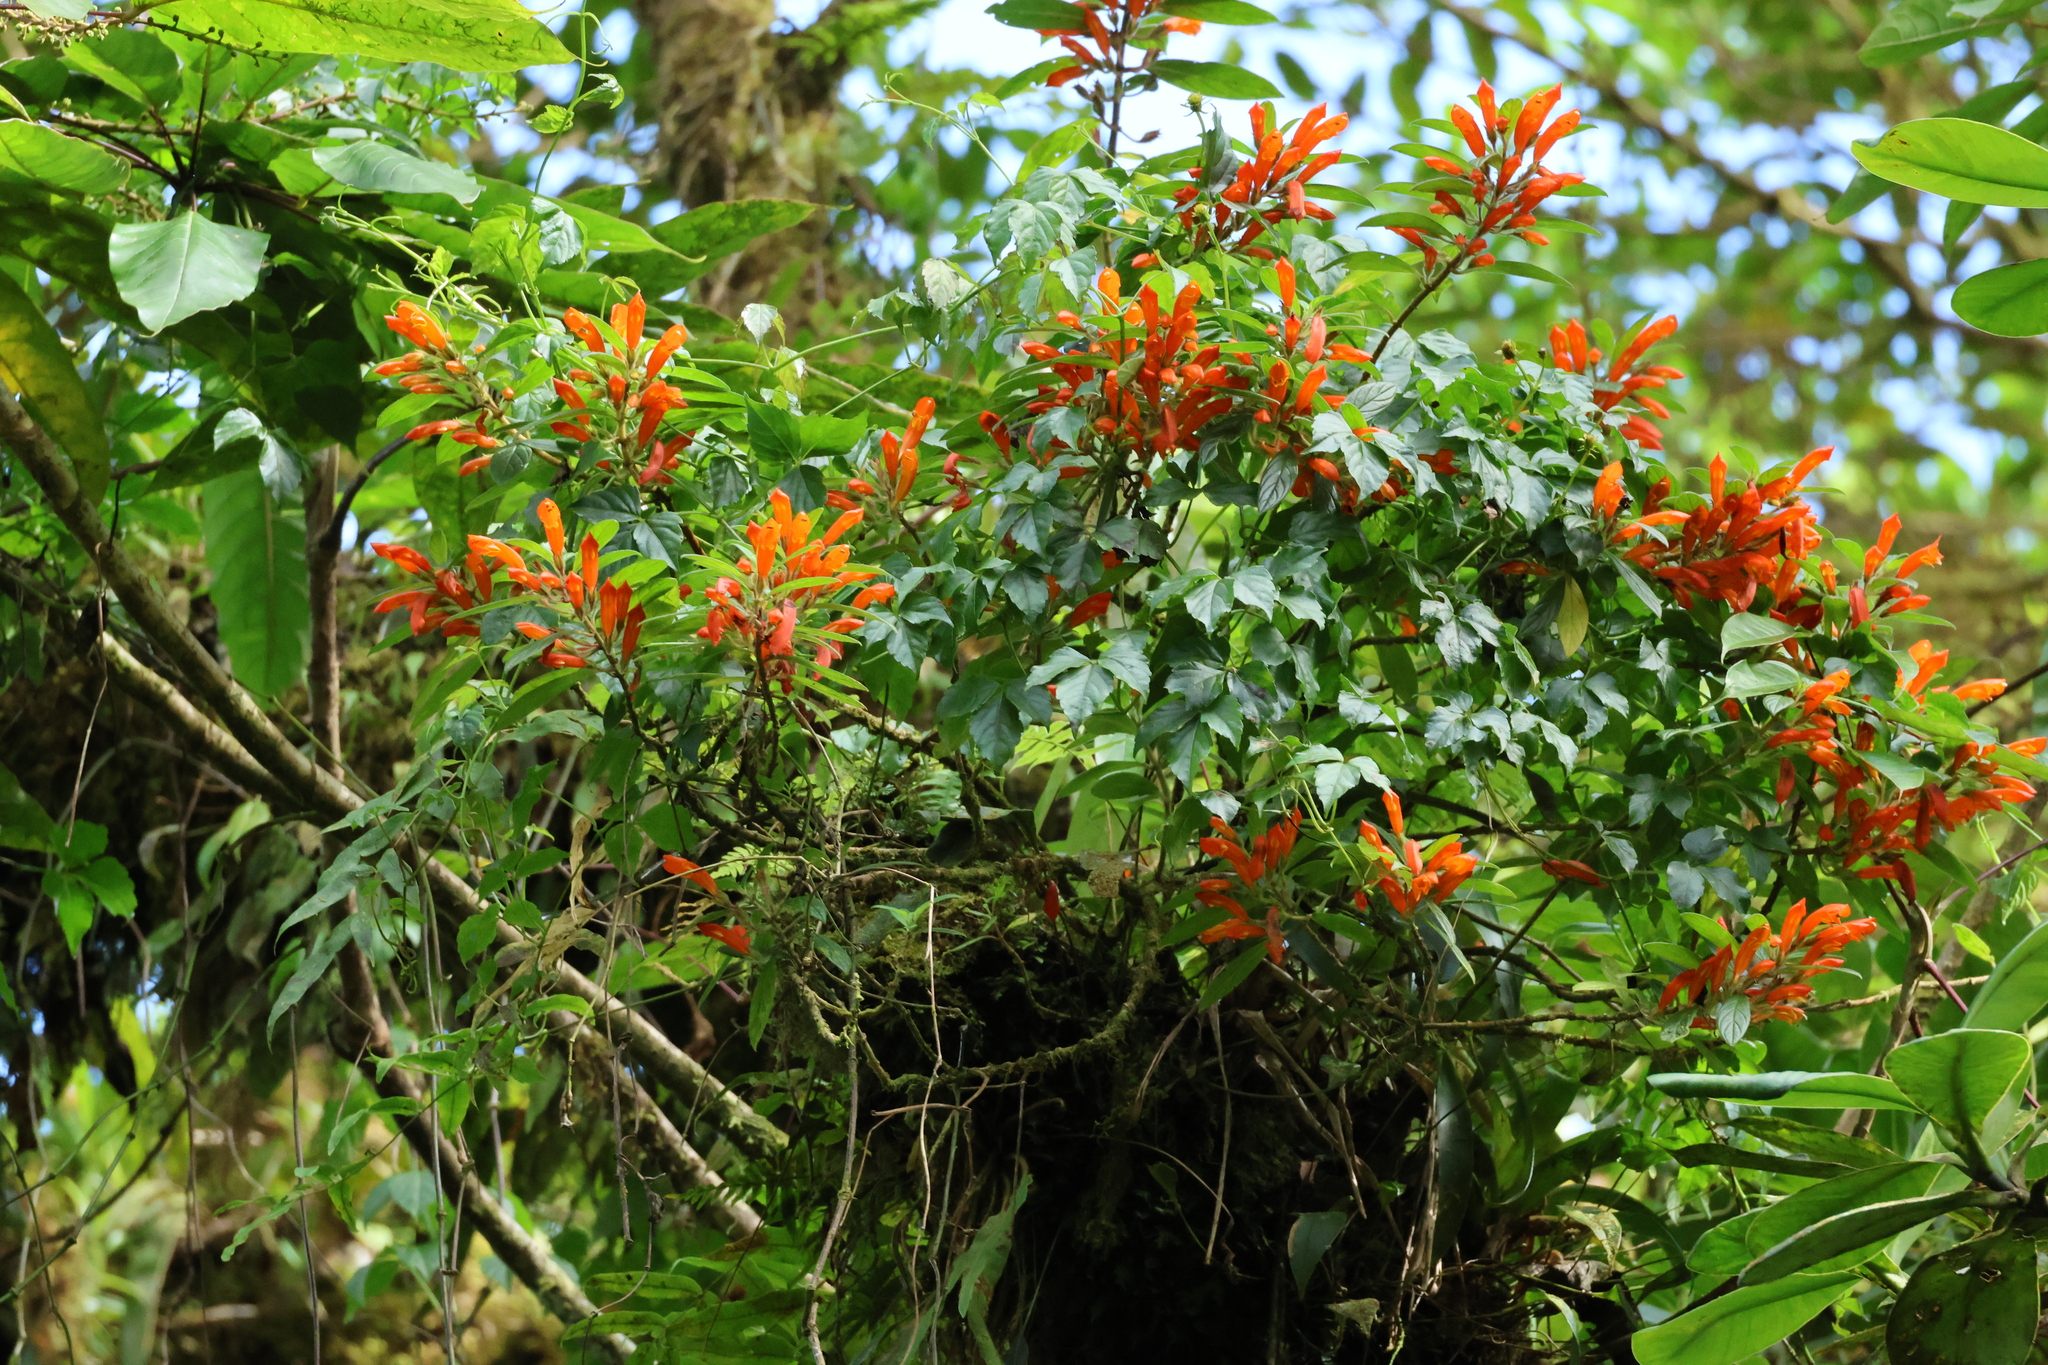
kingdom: Plantae
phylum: Tracheophyta
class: Magnoliopsida
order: Lamiales
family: Bignoniaceae
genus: Pyrostegia
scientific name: Pyrostegia venusta
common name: Flamevine
